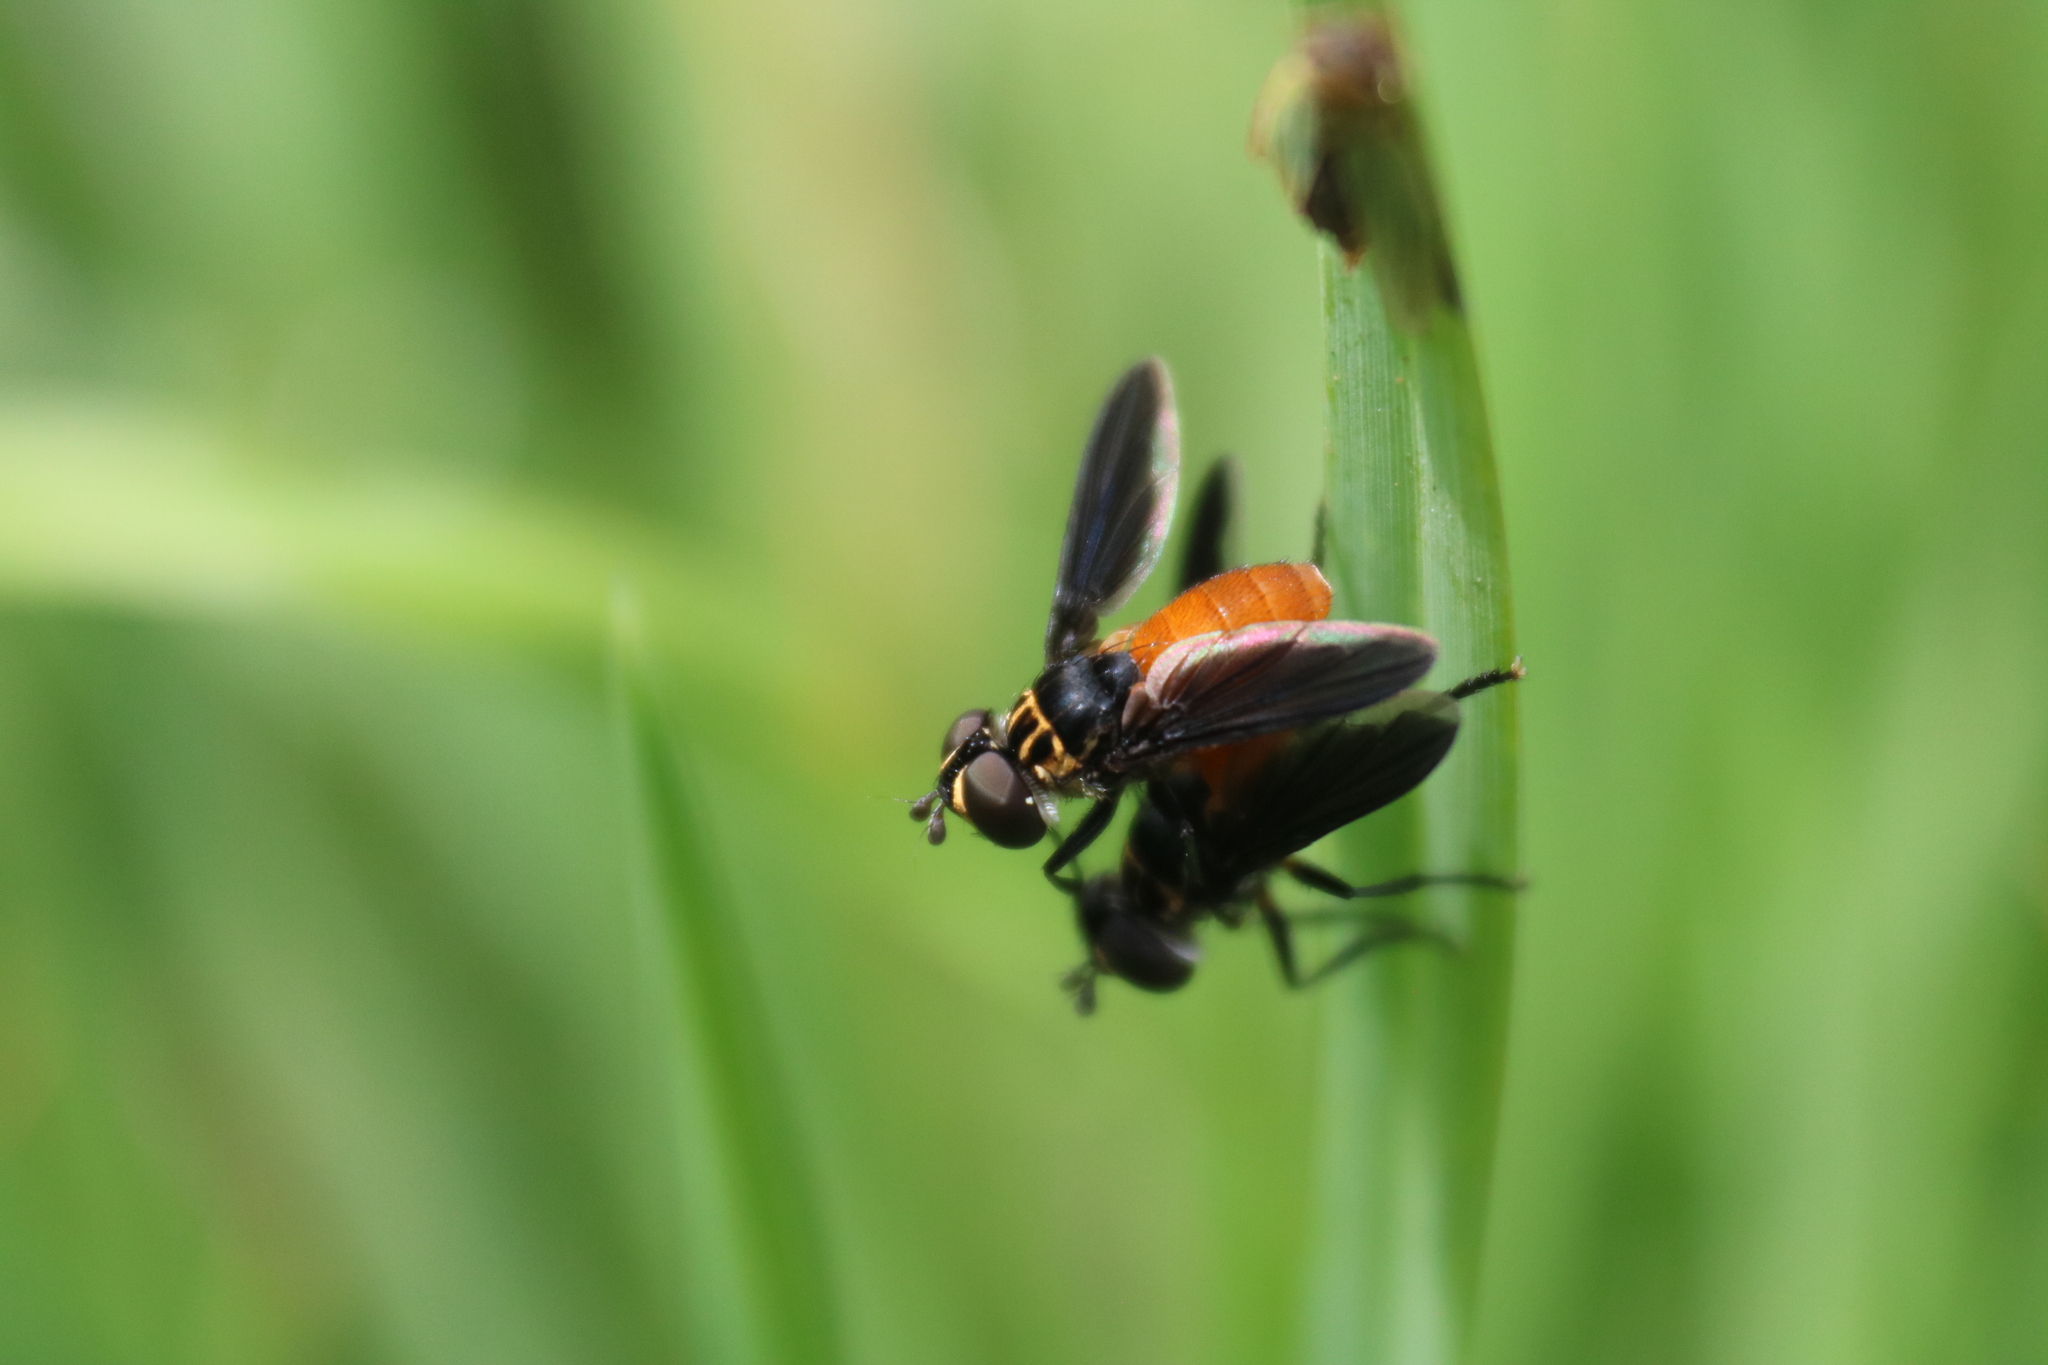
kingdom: Animalia
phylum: Arthropoda
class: Insecta
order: Diptera
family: Tachinidae
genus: Trichopoda
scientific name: Trichopoda pennipes
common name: Tachinid fly
